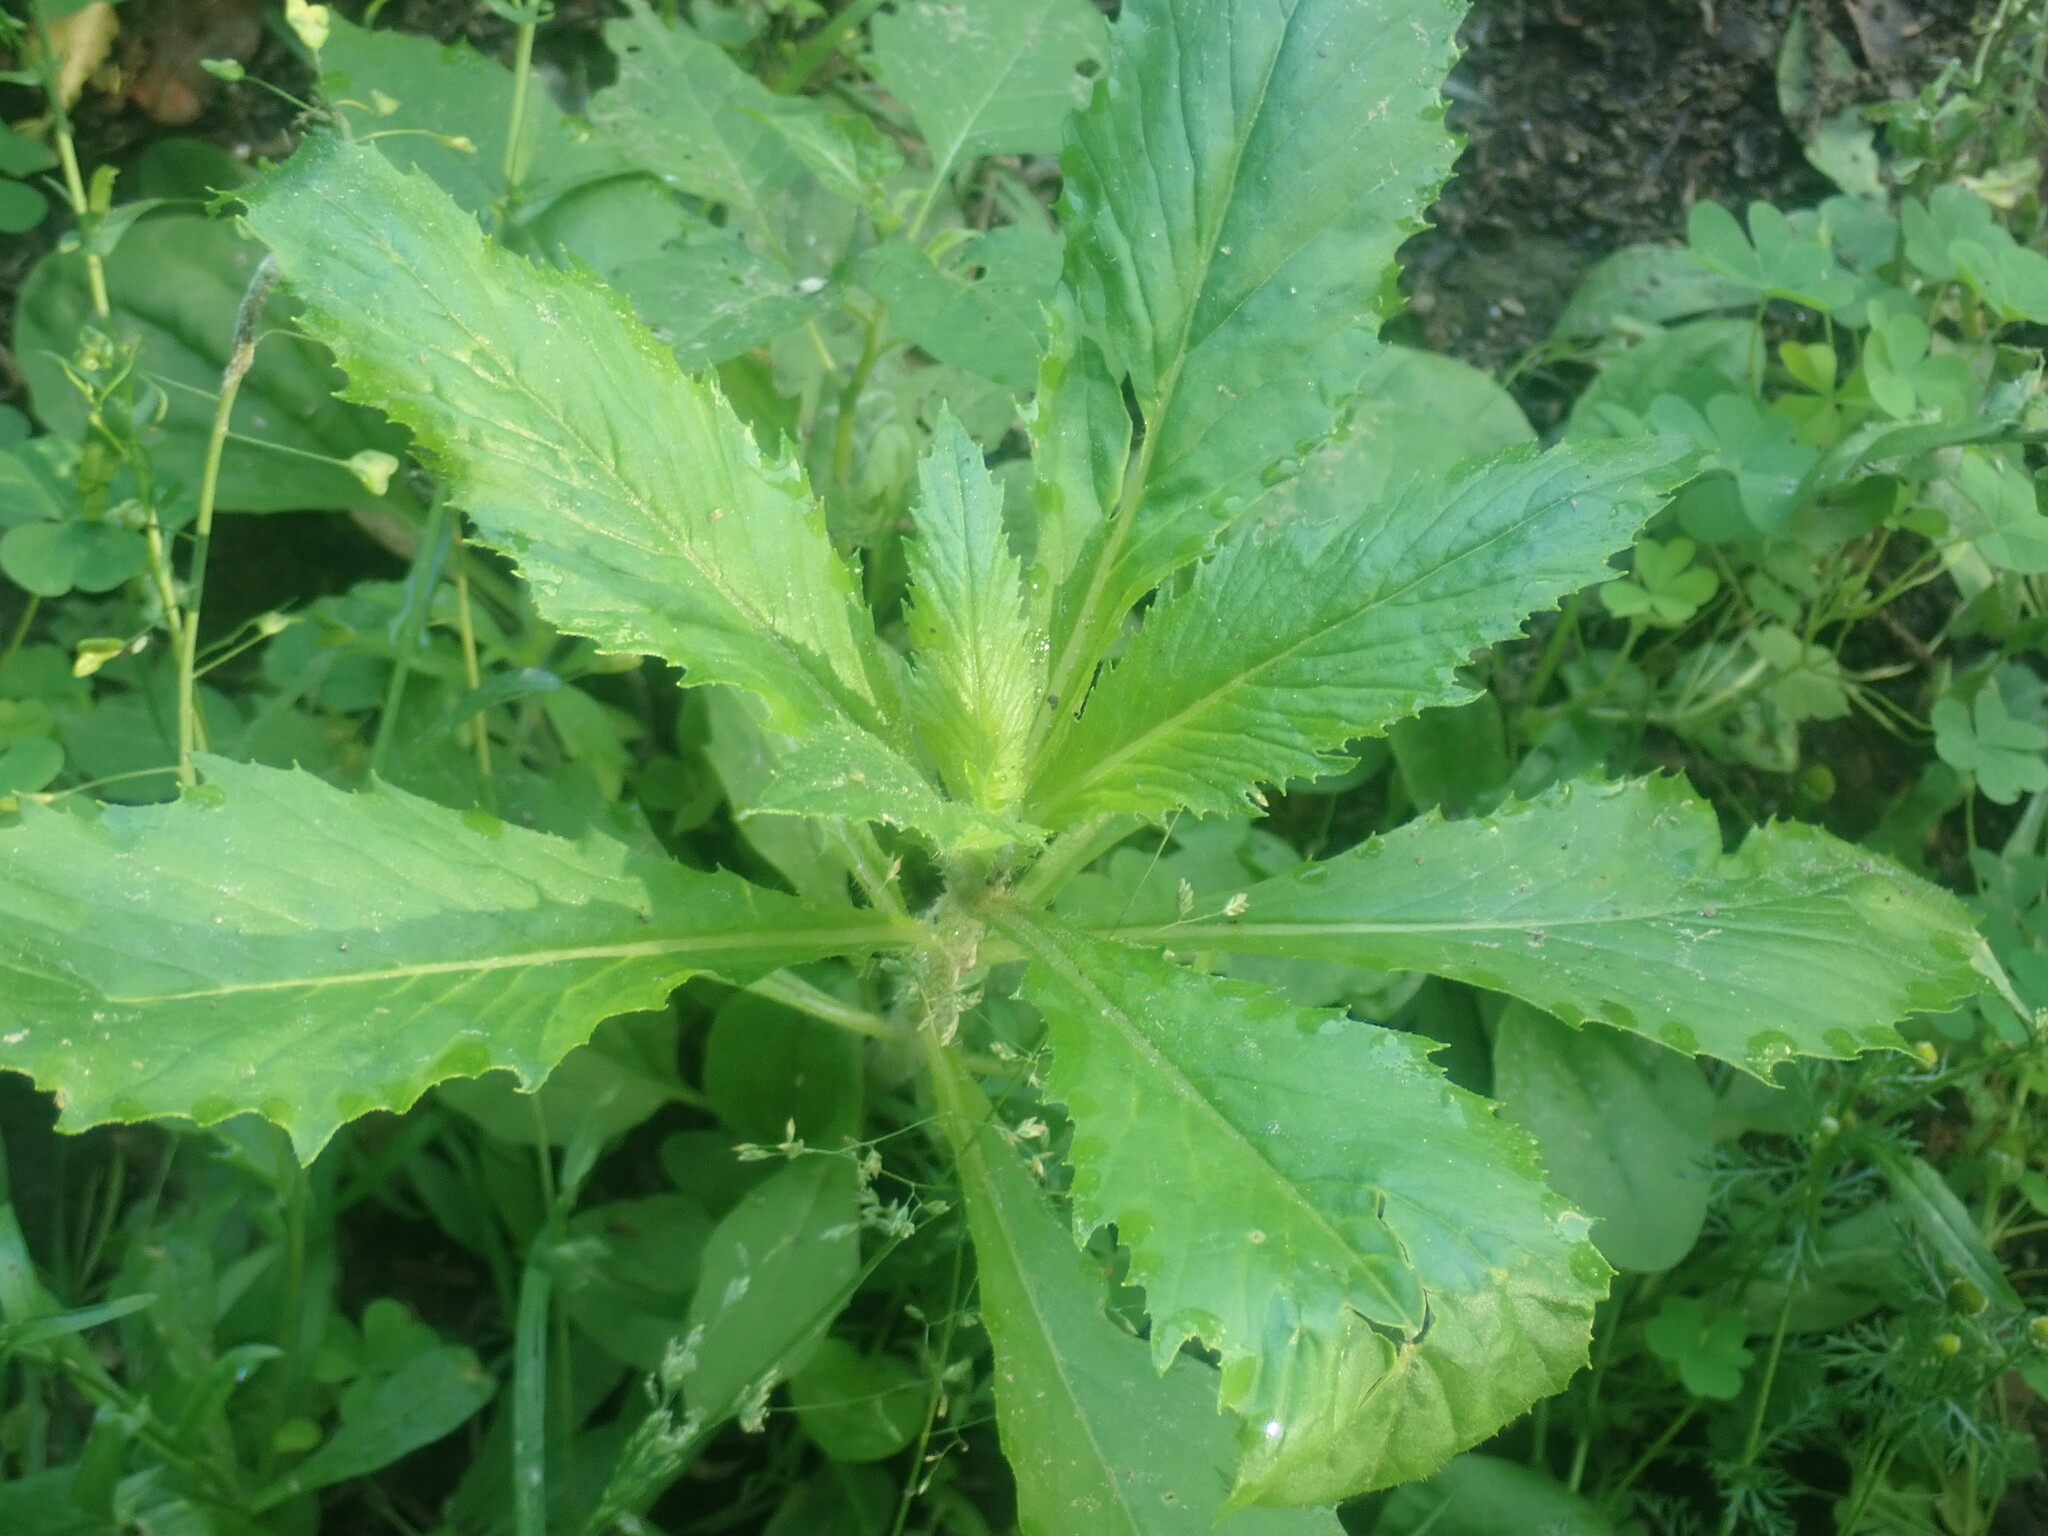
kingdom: Plantae
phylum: Tracheophyta
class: Magnoliopsida
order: Asterales
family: Asteraceae
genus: Erechtites
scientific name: Erechtites hieraciifolius
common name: American burnweed
